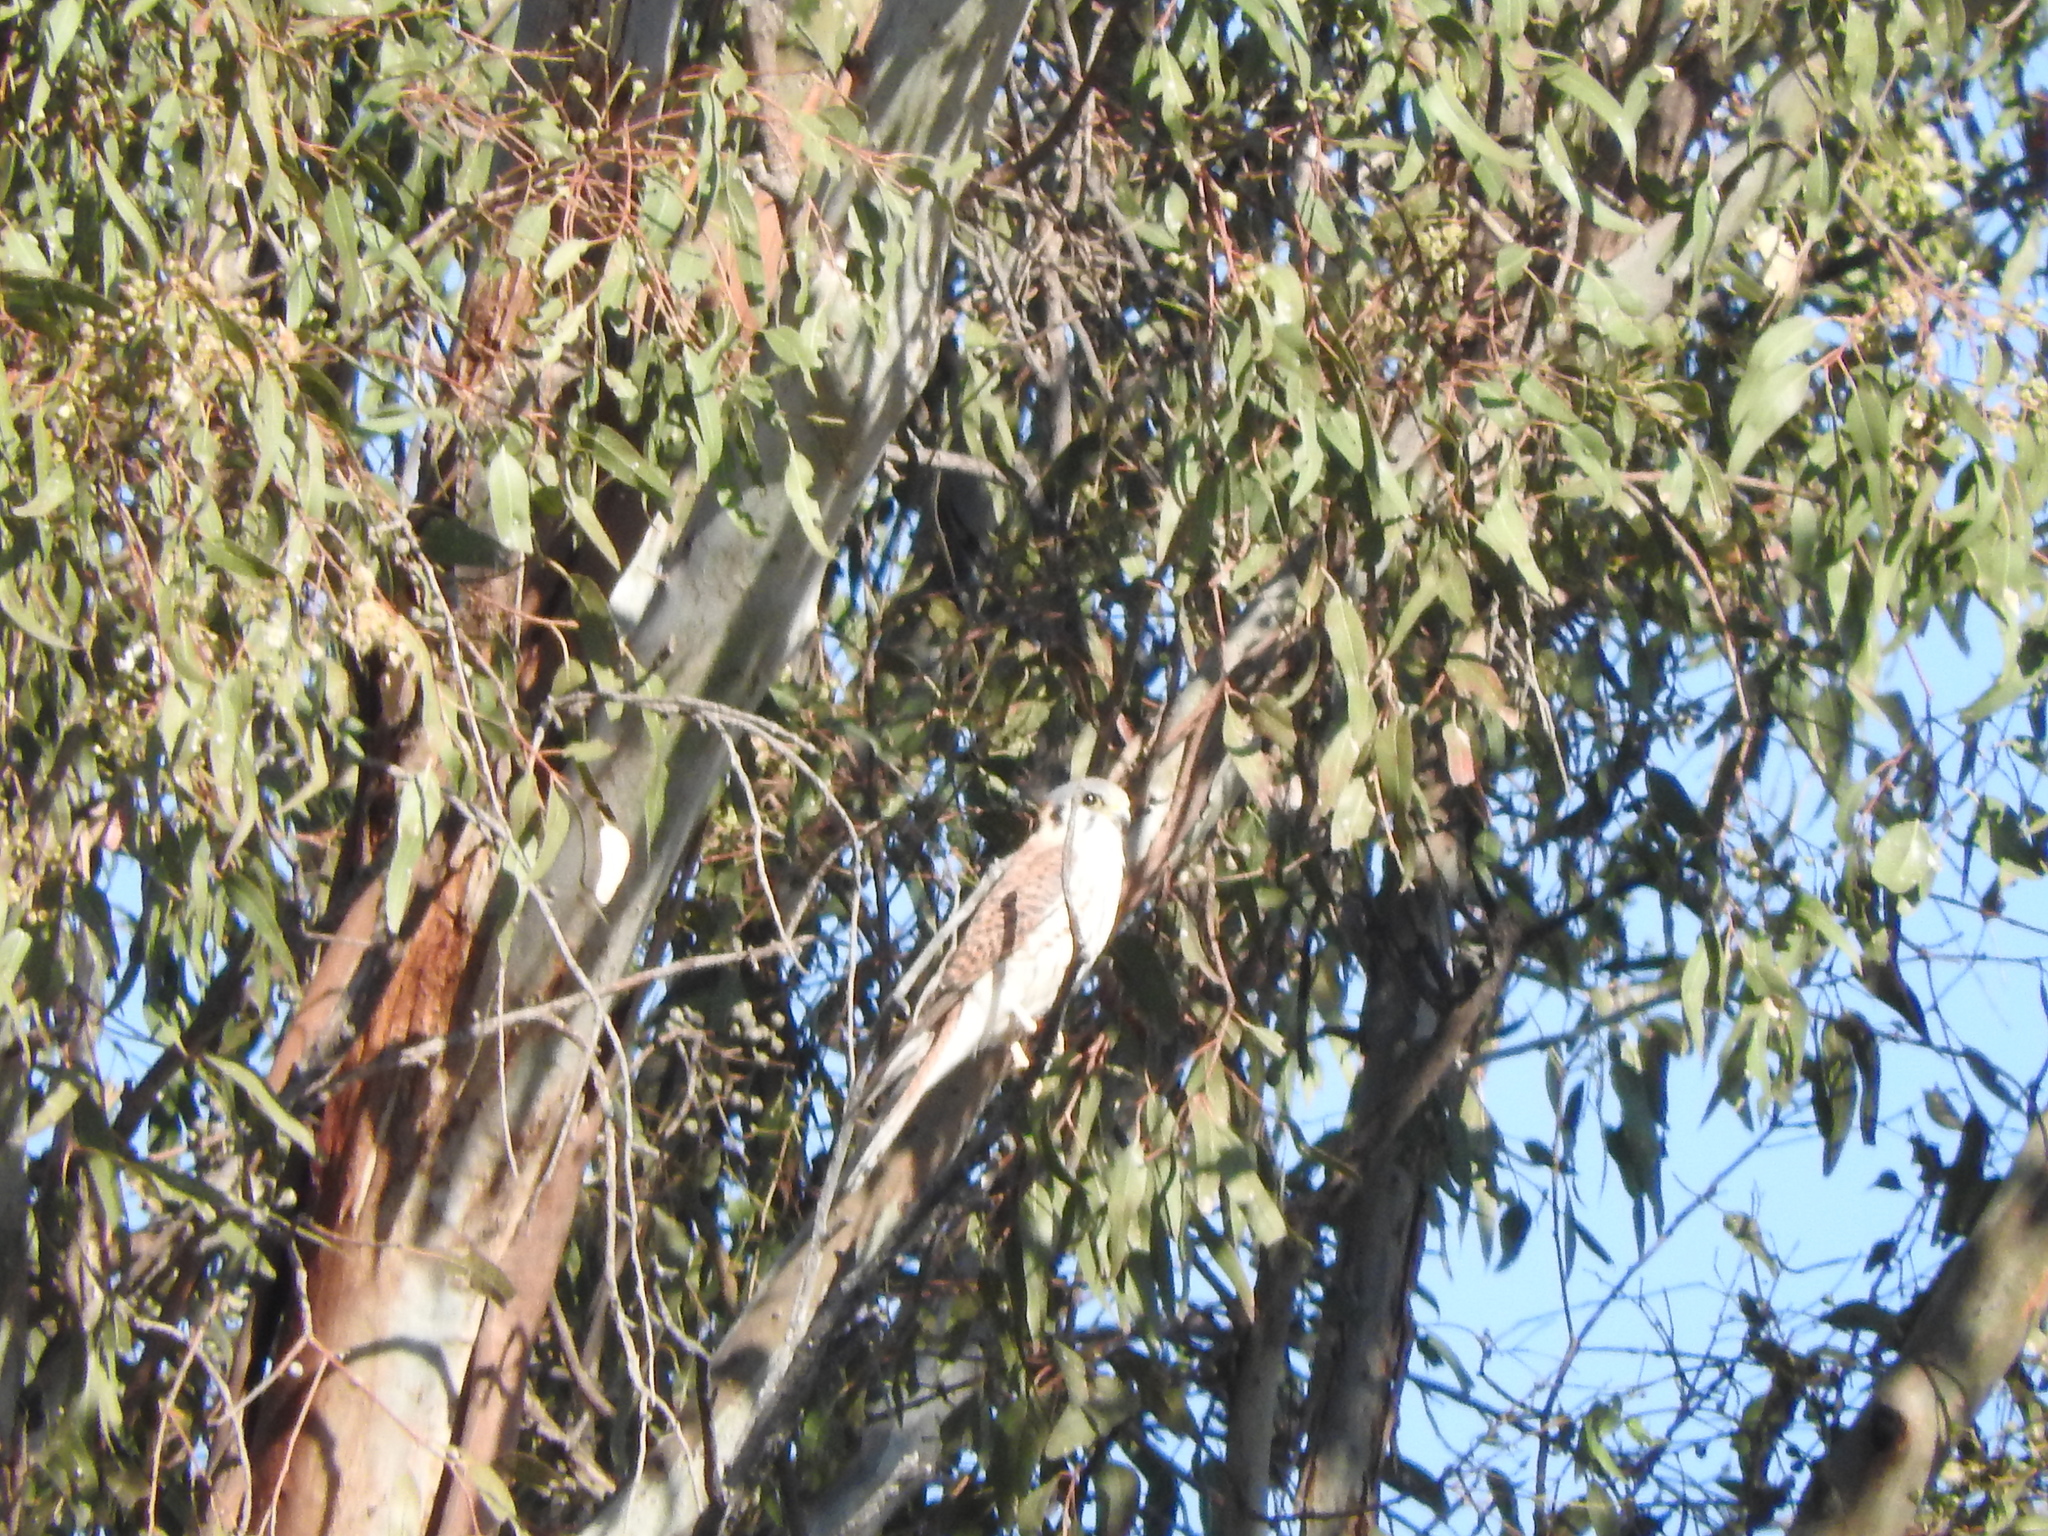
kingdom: Animalia
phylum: Chordata
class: Aves
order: Falconiformes
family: Falconidae
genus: Falco
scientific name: Falco sparverius
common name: American kestrel
